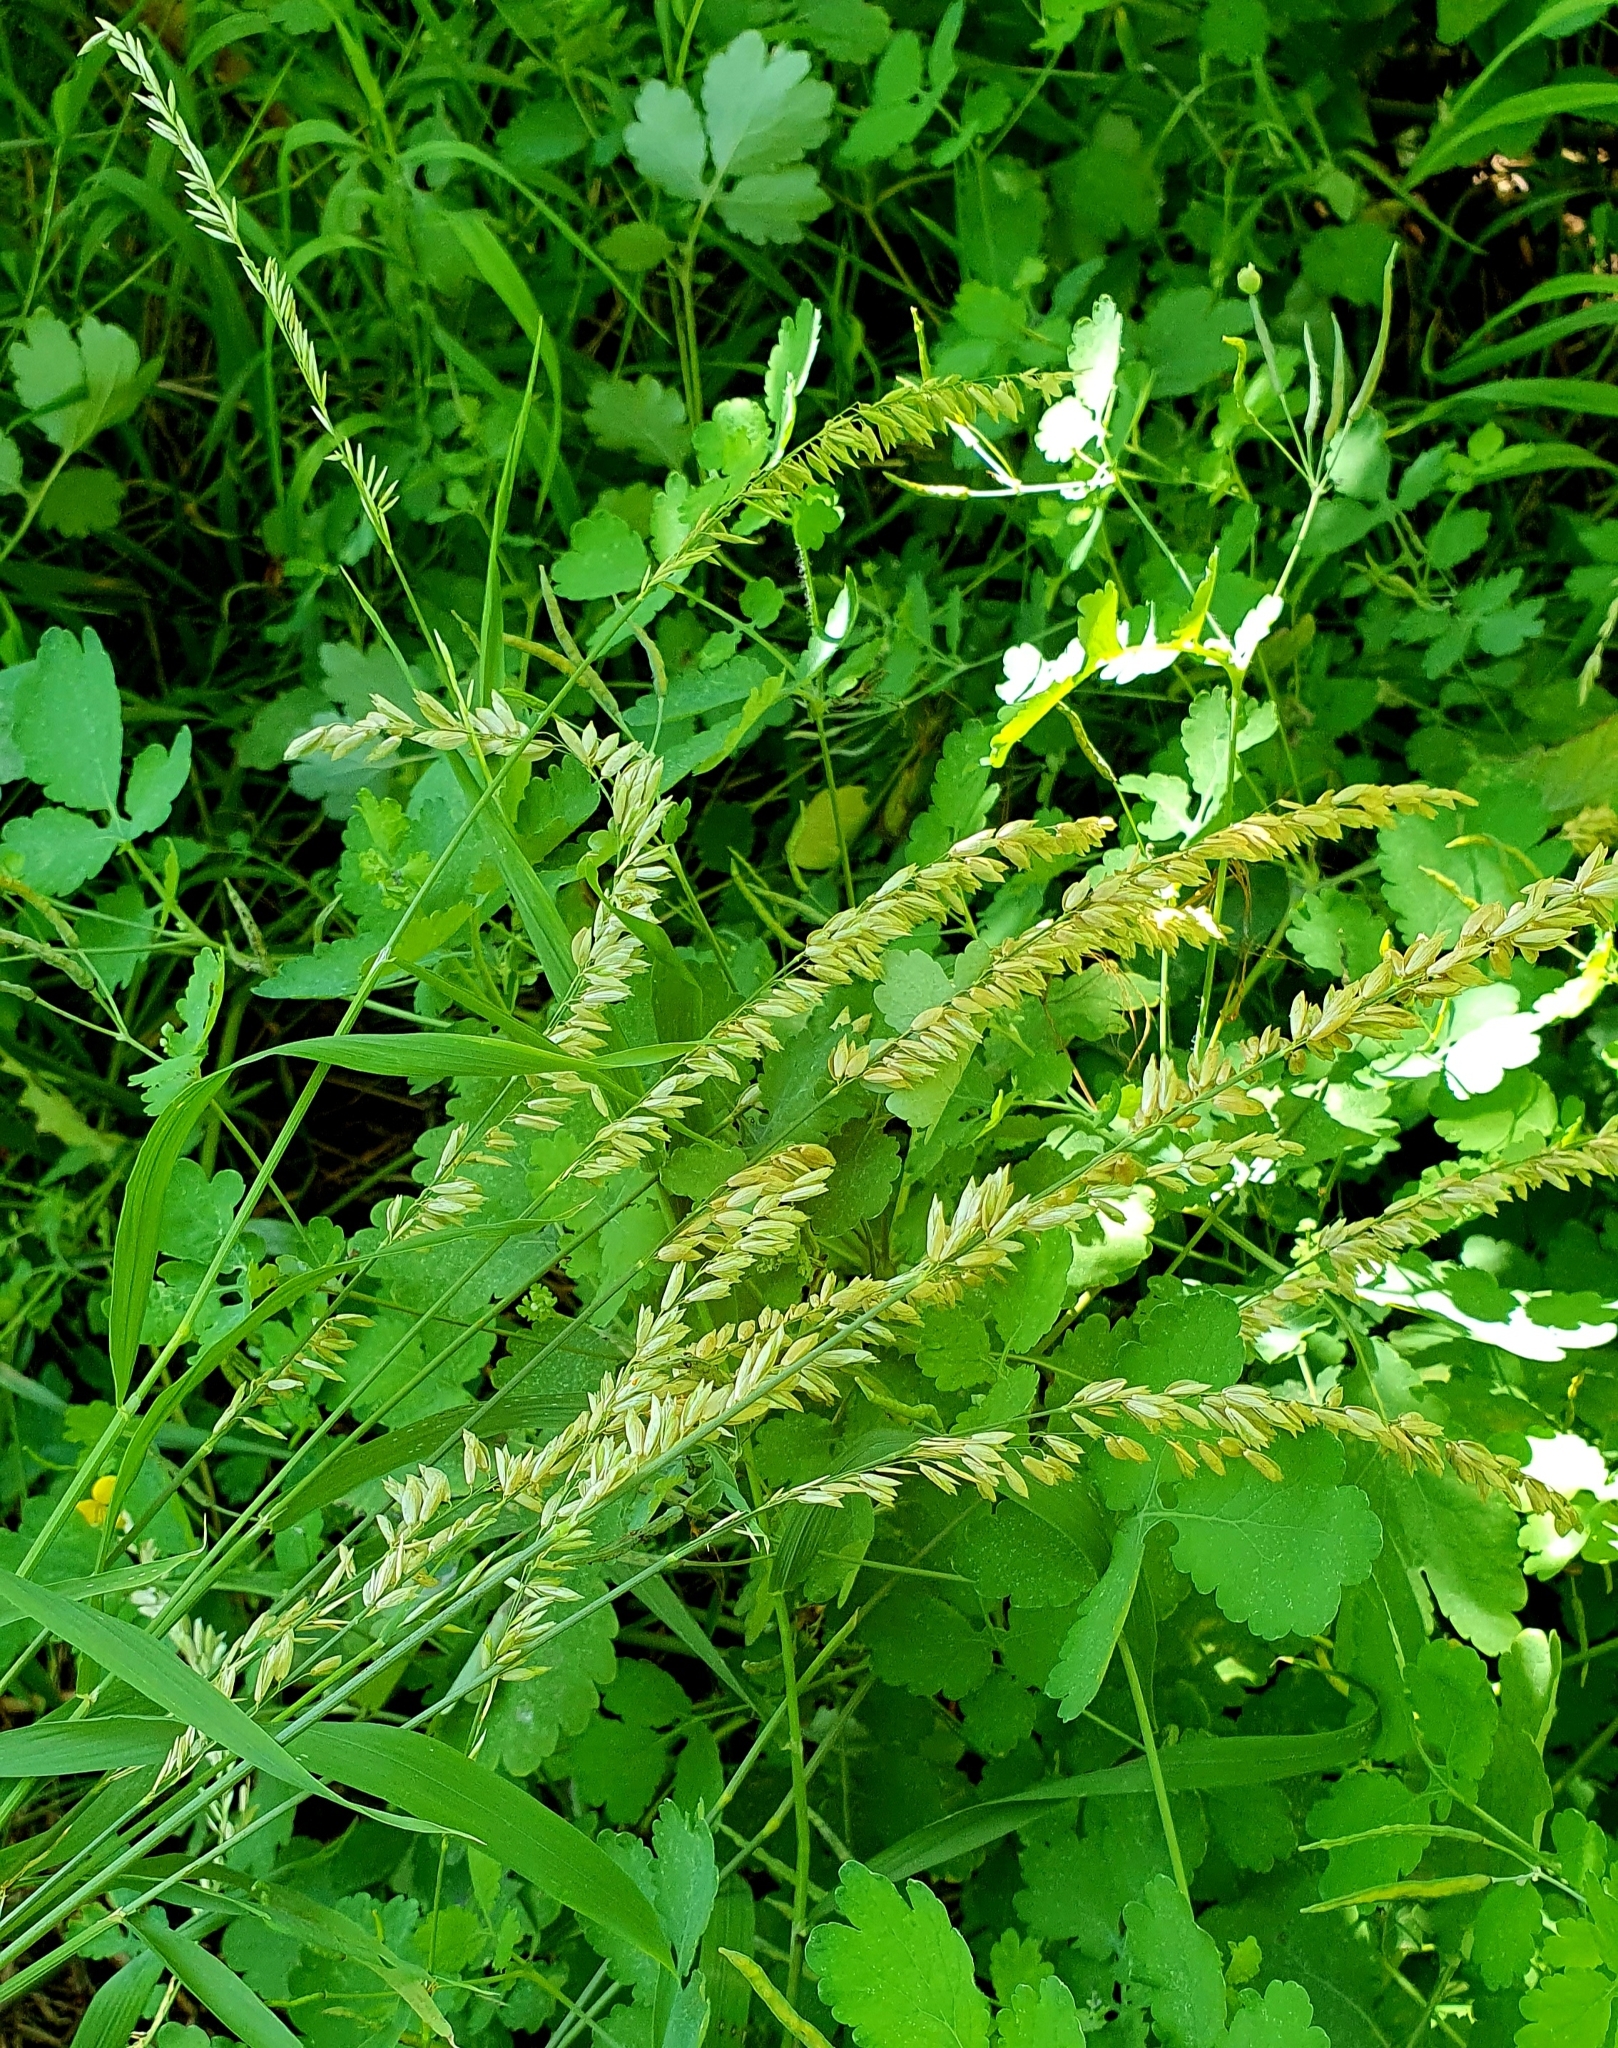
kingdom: Plantae
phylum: Tracheophyta
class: Liliopsida
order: Poales
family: Poaceae
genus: Melica
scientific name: Melica altissima
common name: Siberian melicgrass
